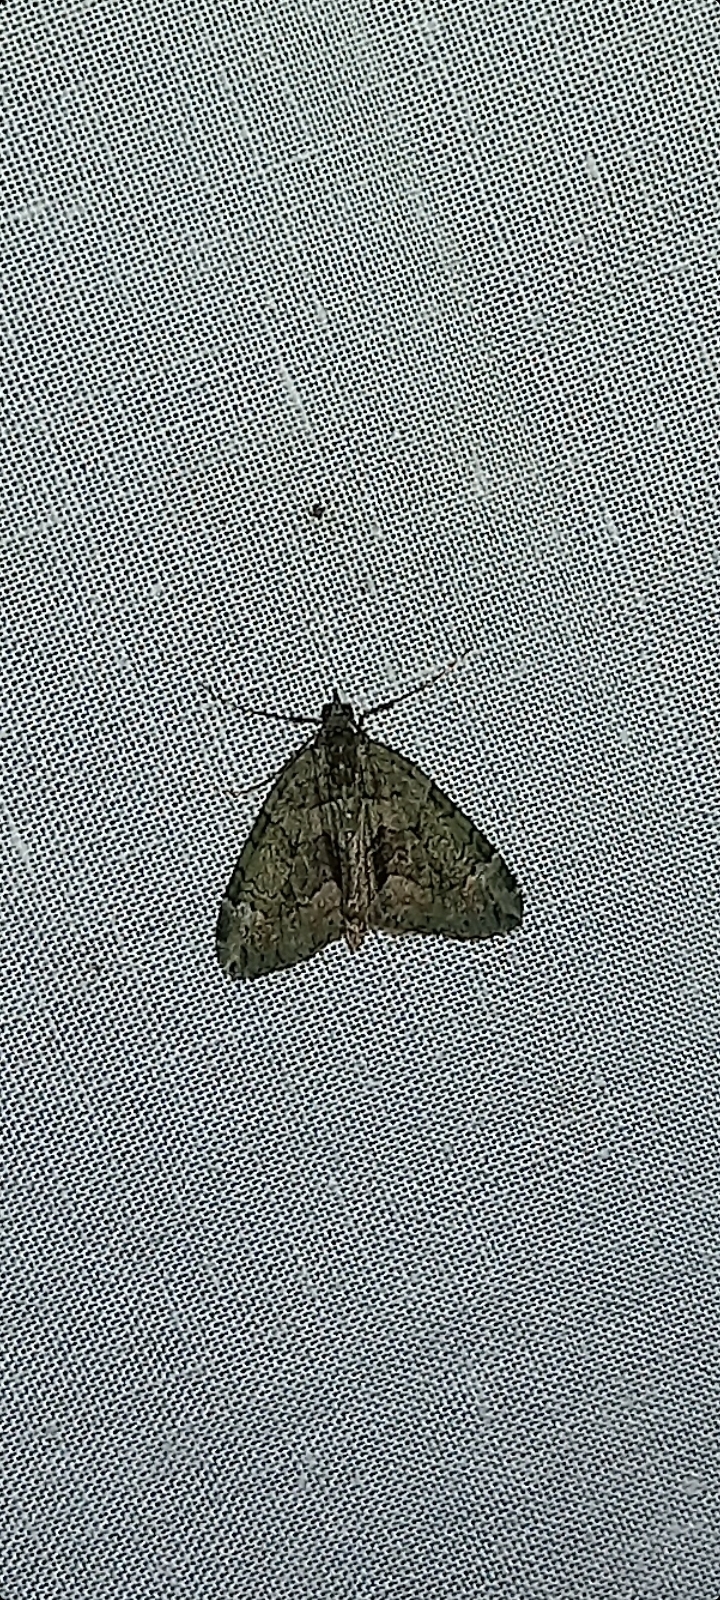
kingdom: Animalia
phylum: Arthropoda
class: Insecta
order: Lepidoptera
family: Geometridae
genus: Chloroclysta
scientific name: Chloroclysta siterata
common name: Red-green carpet
